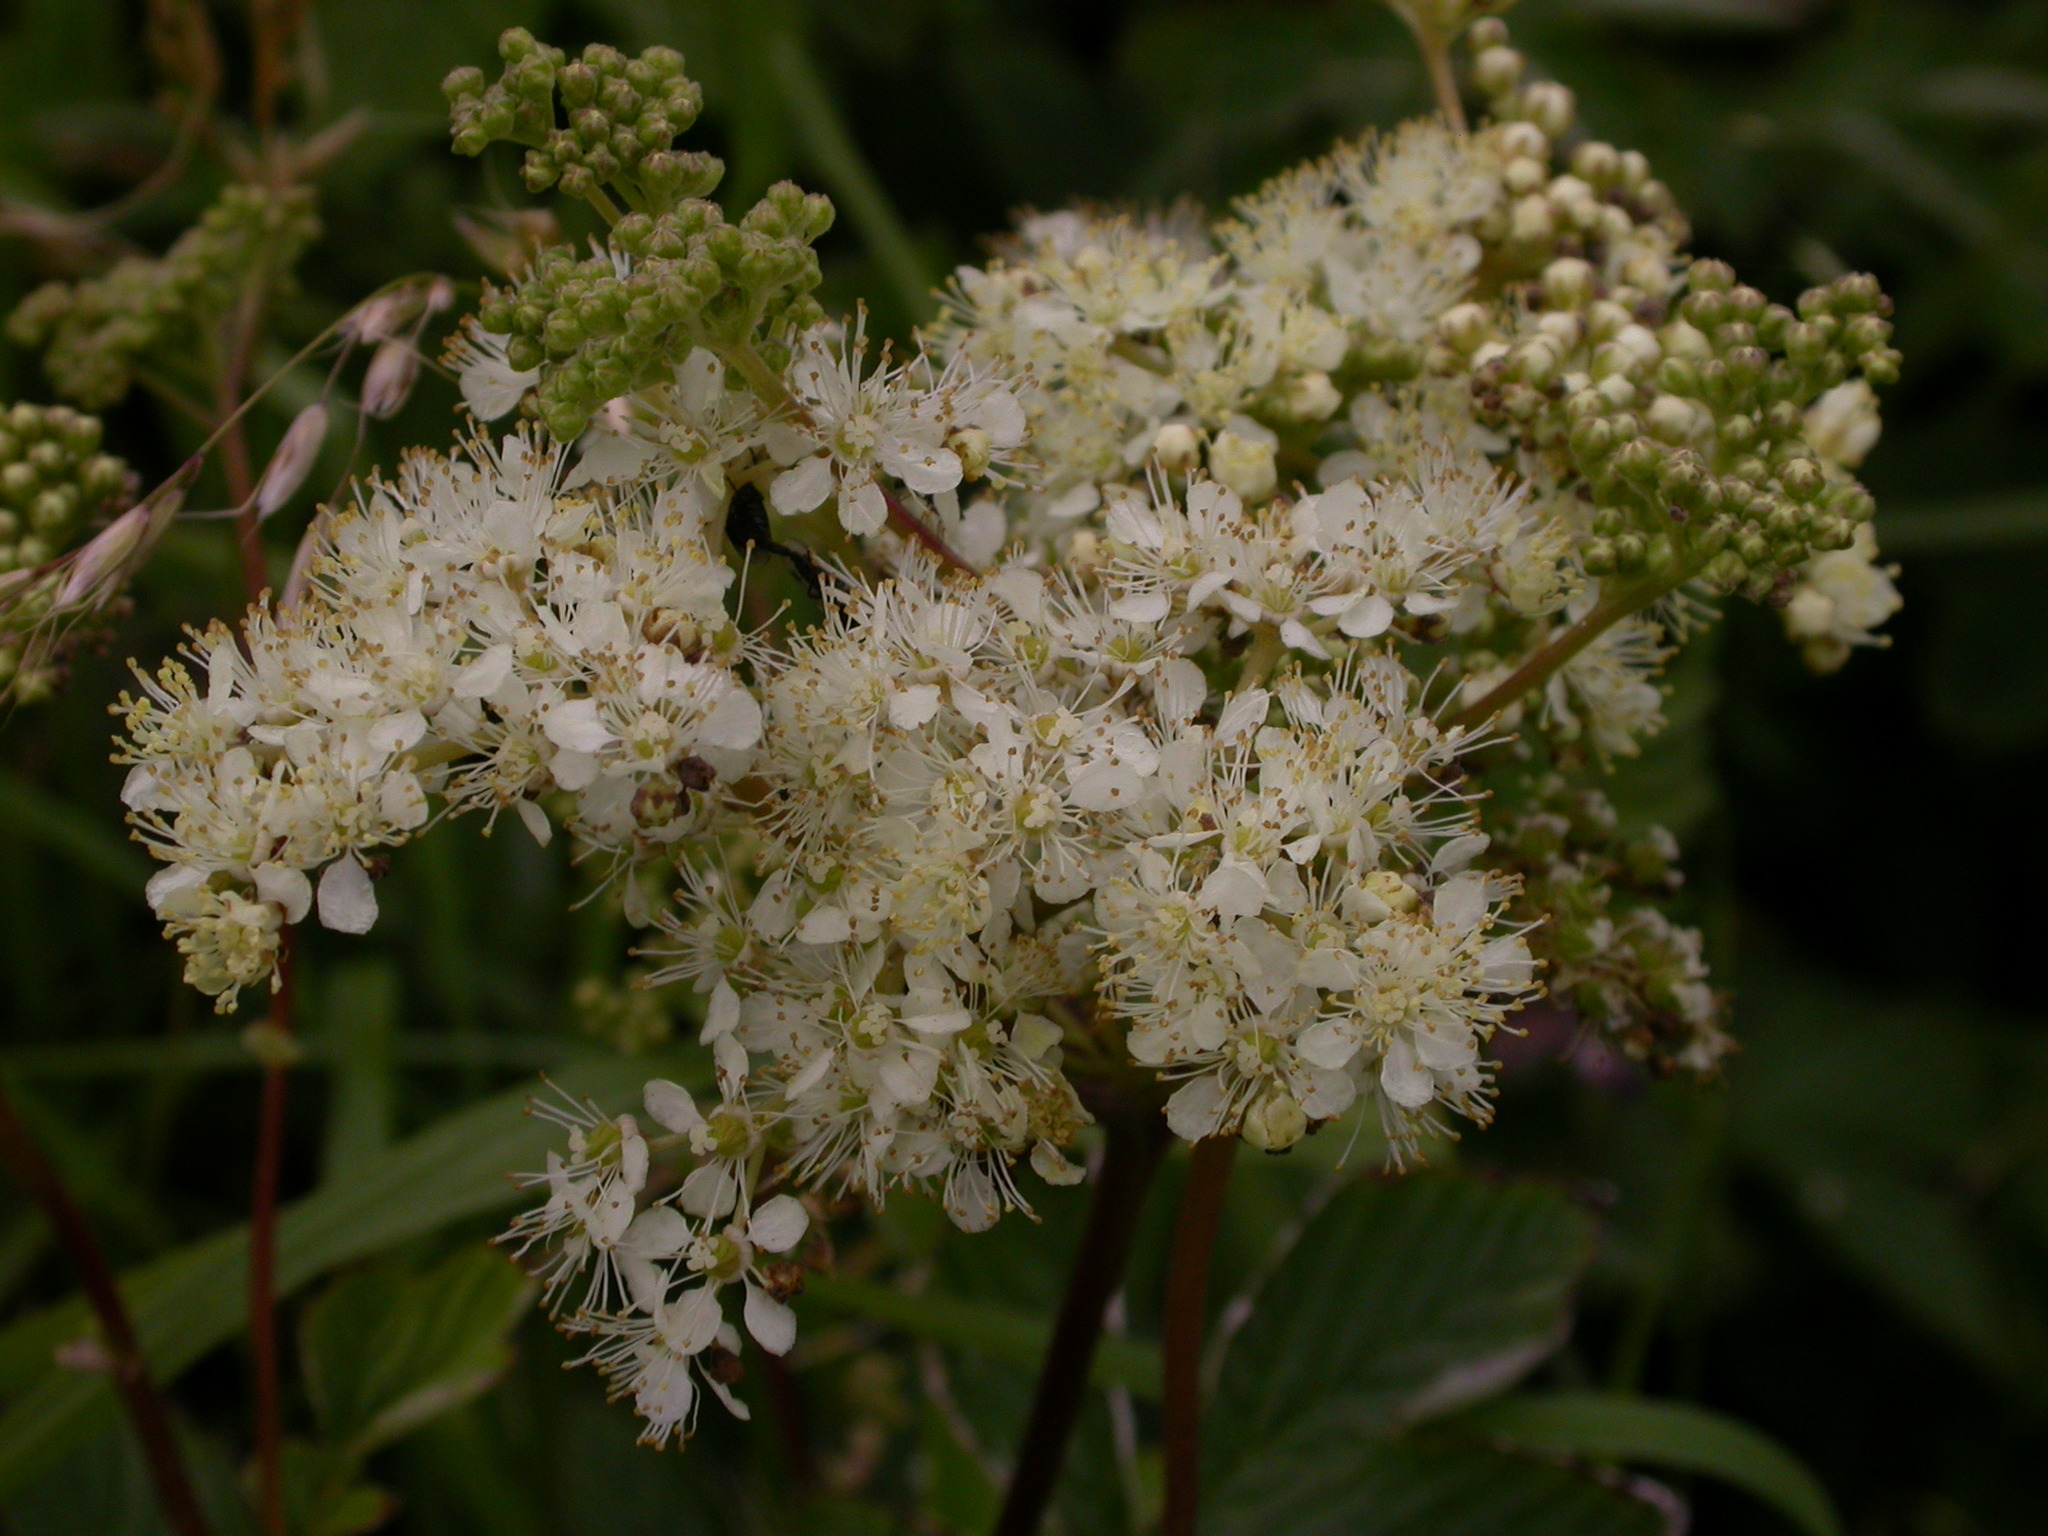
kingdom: Plantae
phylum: Tracheophyta
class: Magnoliopsida
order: Rosales
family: Rosaceae
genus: Filipendula
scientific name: Filipendula ulmaria
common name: Meadowsweet
